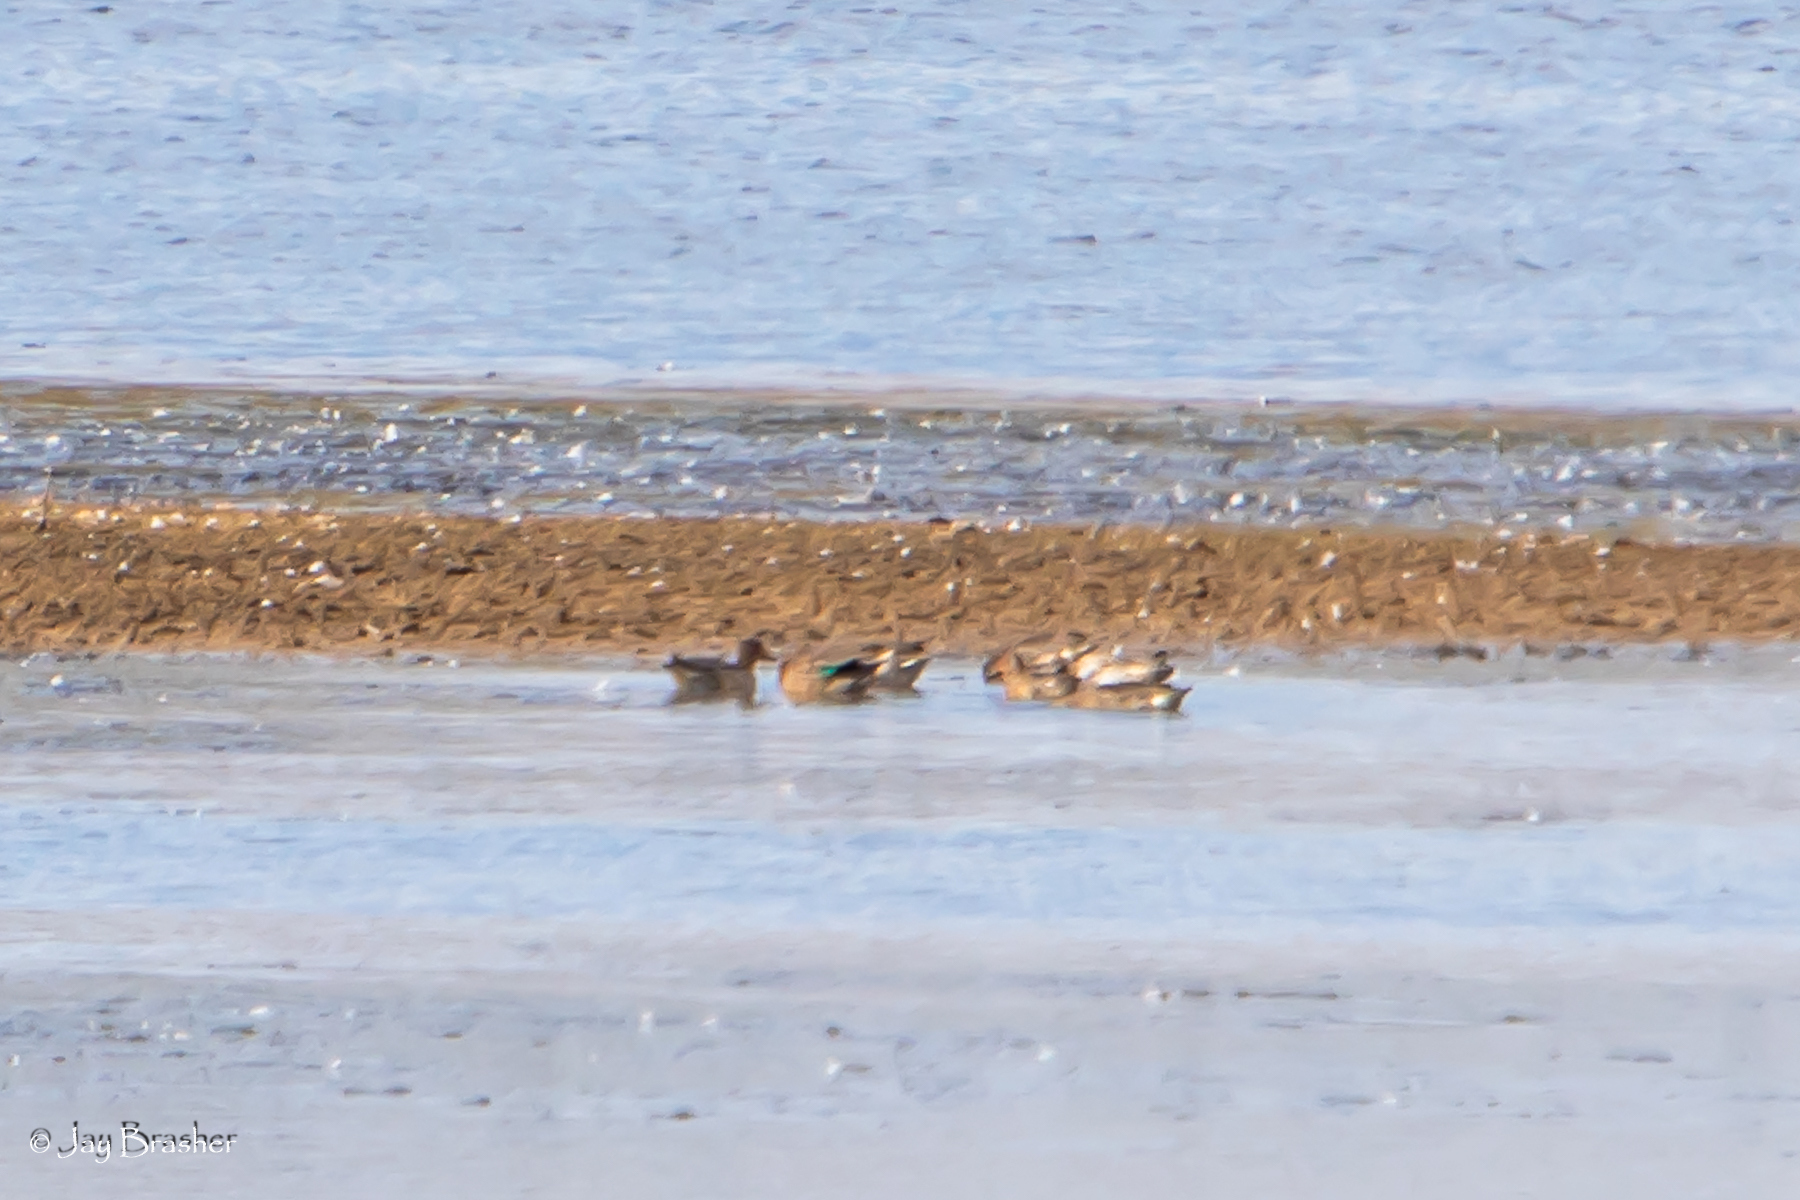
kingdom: Animalia
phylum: Chordata
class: Aves
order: Anseriformes
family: Anatidae
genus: Anas
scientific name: Anas crecca
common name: Eurasian teal
